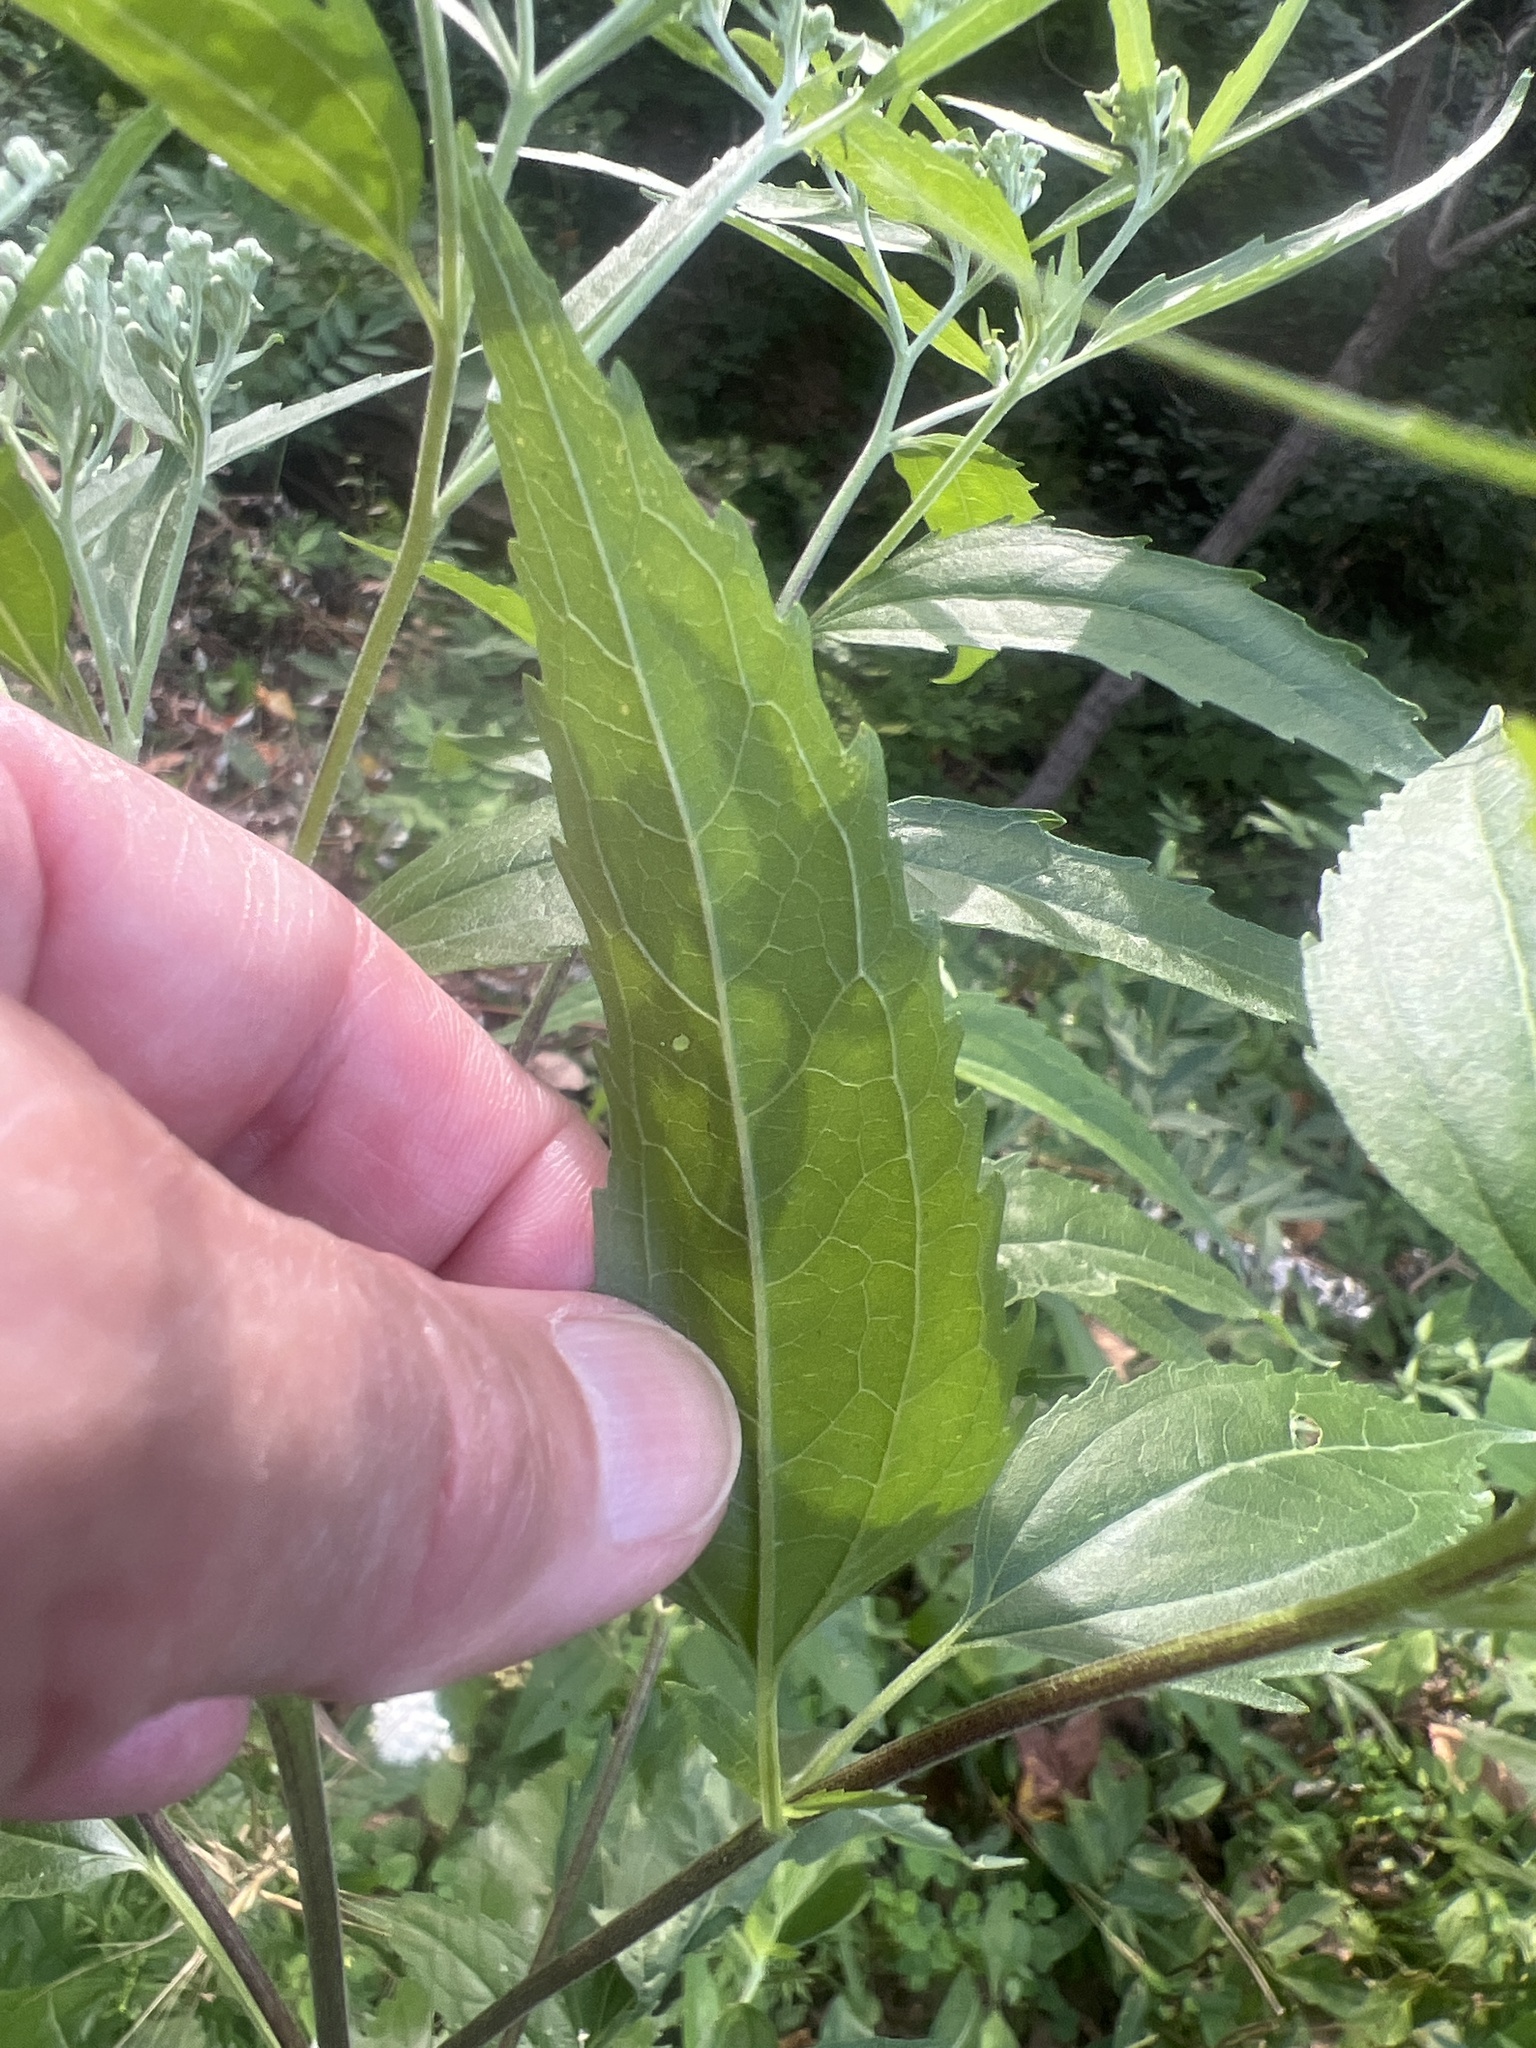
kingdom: Plantae
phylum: Tracheophyta
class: Magnoliopsida
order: Asterales
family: Asteraceae
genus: Eupatorium
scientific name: Eupatorium serotinum
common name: Late boneset
